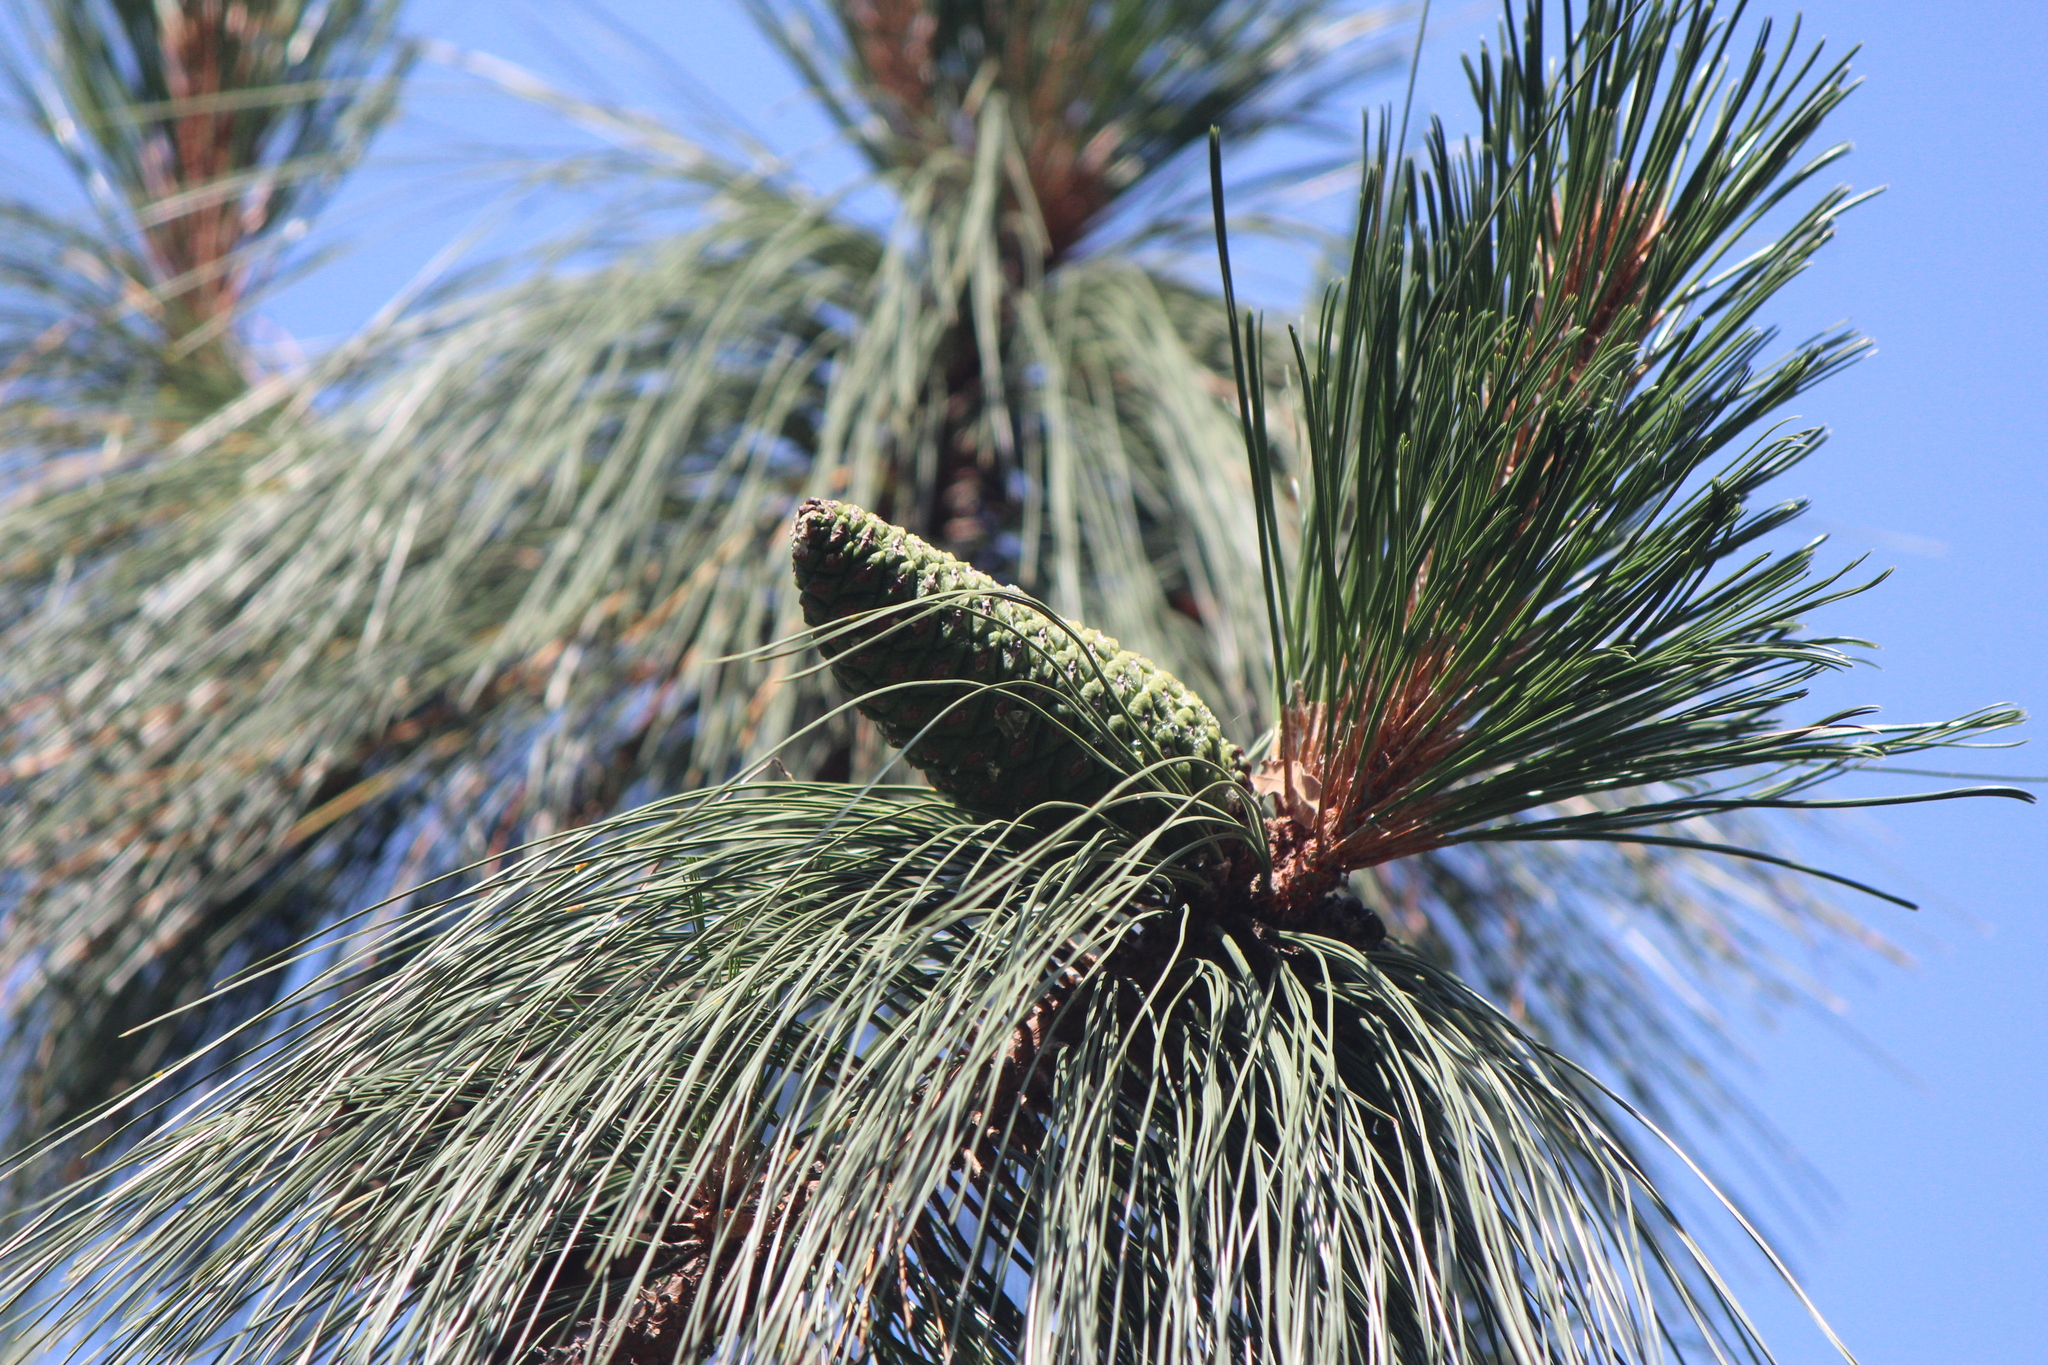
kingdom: Plantae
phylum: Tracheophyta
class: Pinopsida
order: Pinales
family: Pinaceae
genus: Pinus
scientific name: Pinus pseudostrobus
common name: False weymouth pine
